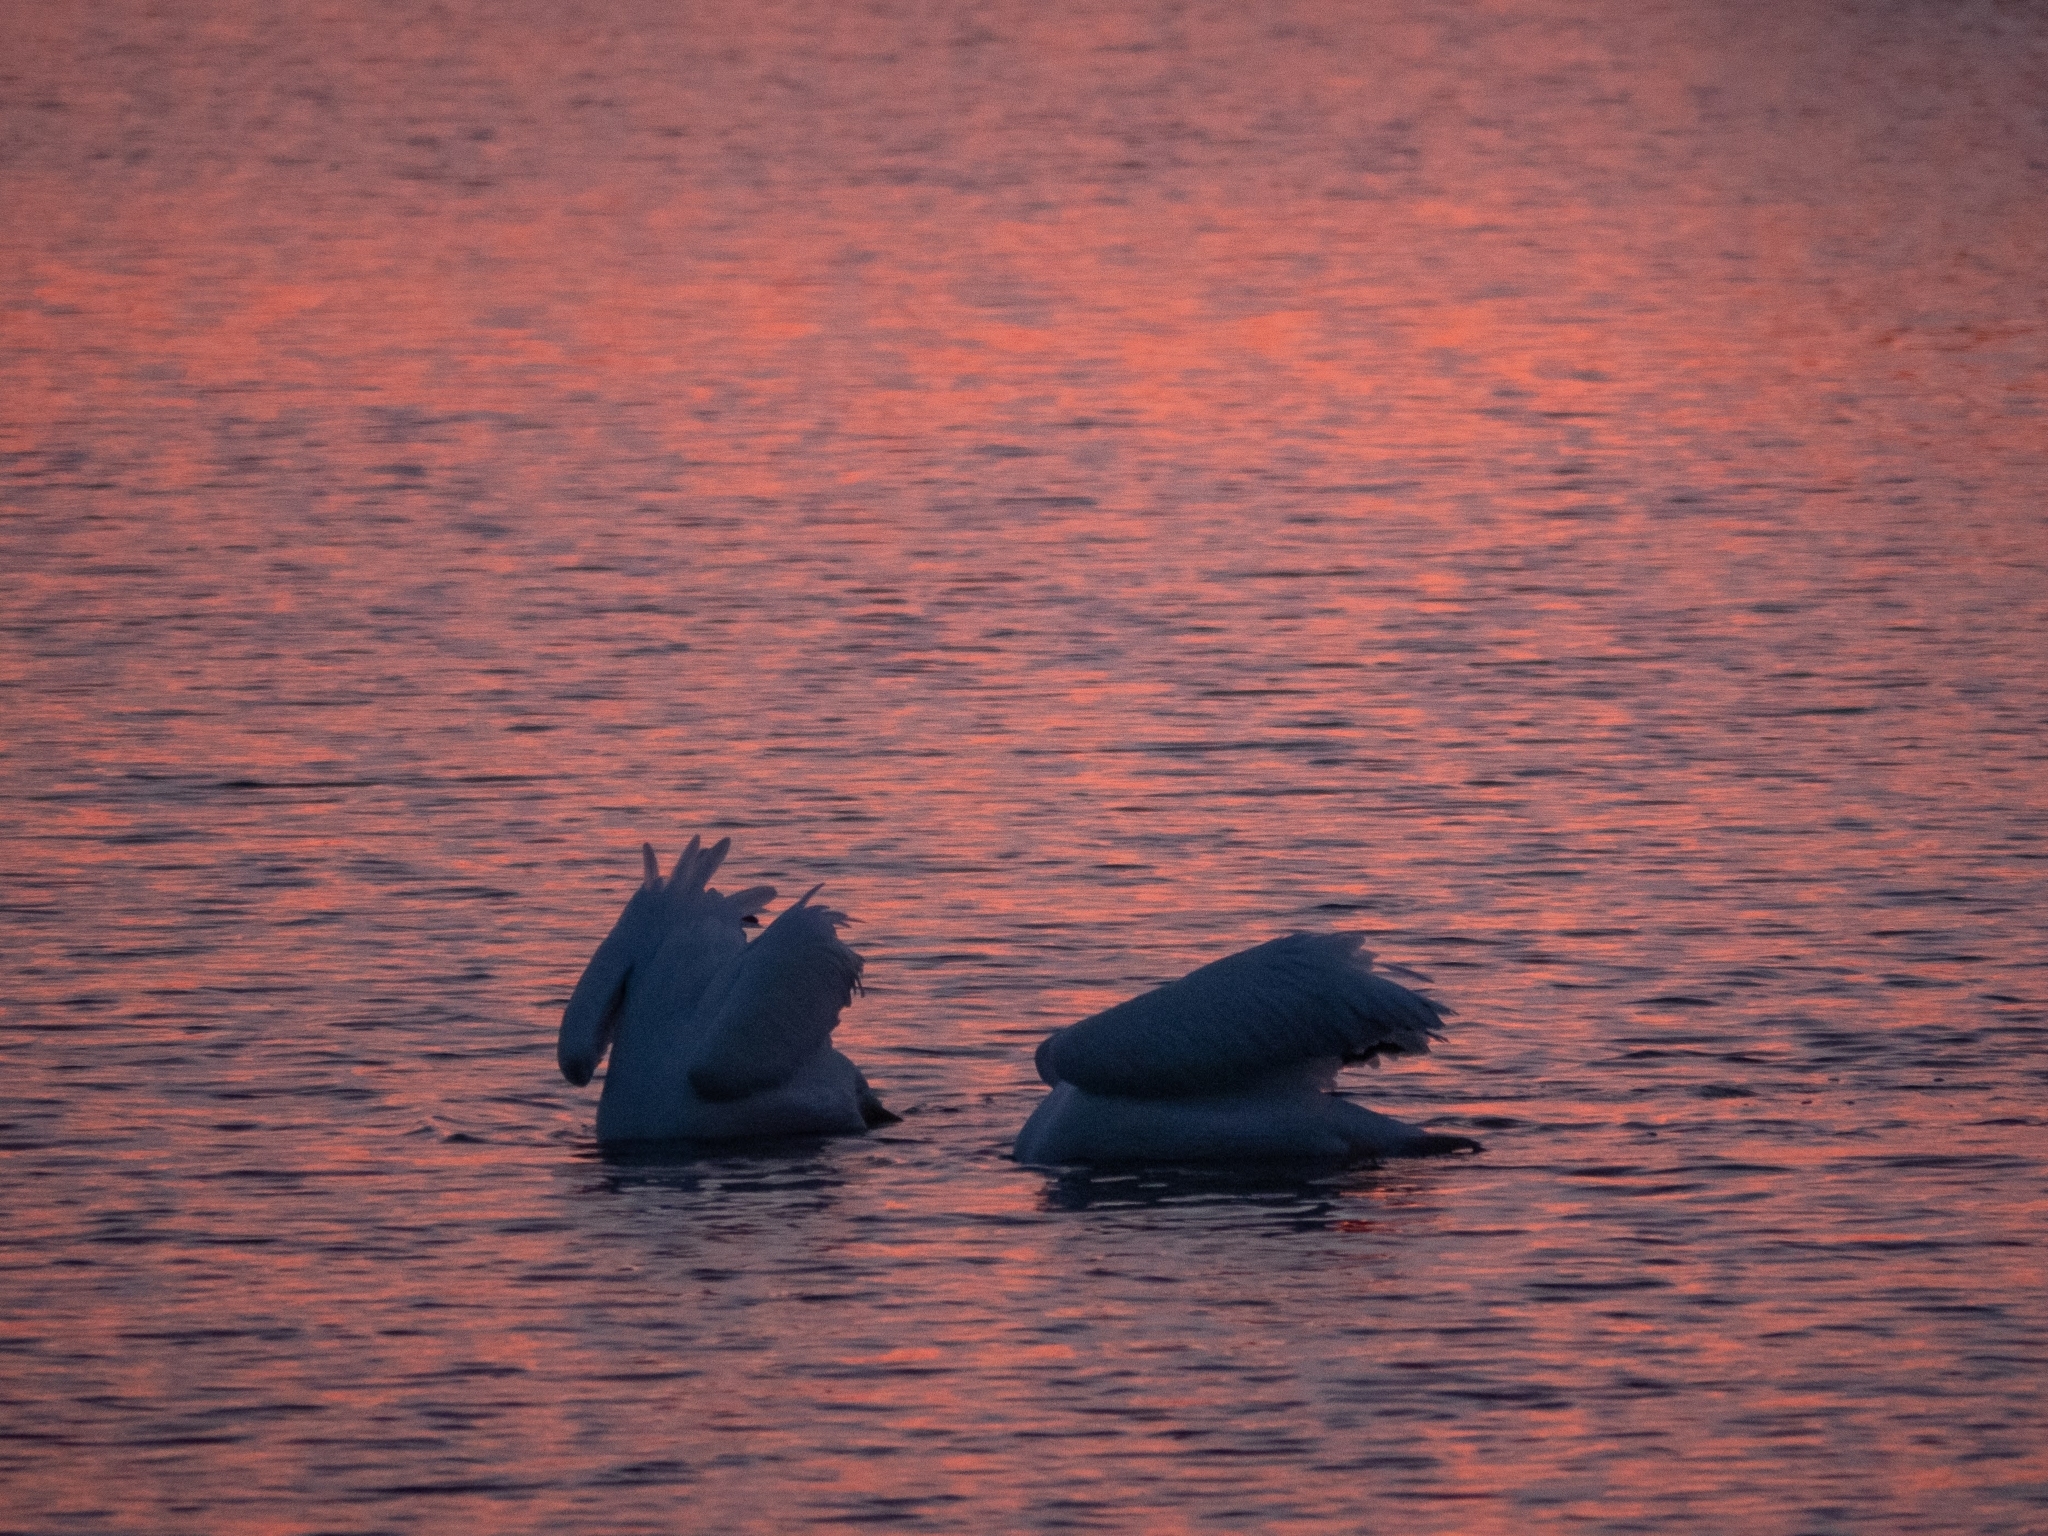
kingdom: Animalia
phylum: Chordata
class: Aves
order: Pelecaniformes
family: Pelecanidae
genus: Pelecanus
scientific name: Pelecanus erythrorhynchos
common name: American white pelican
